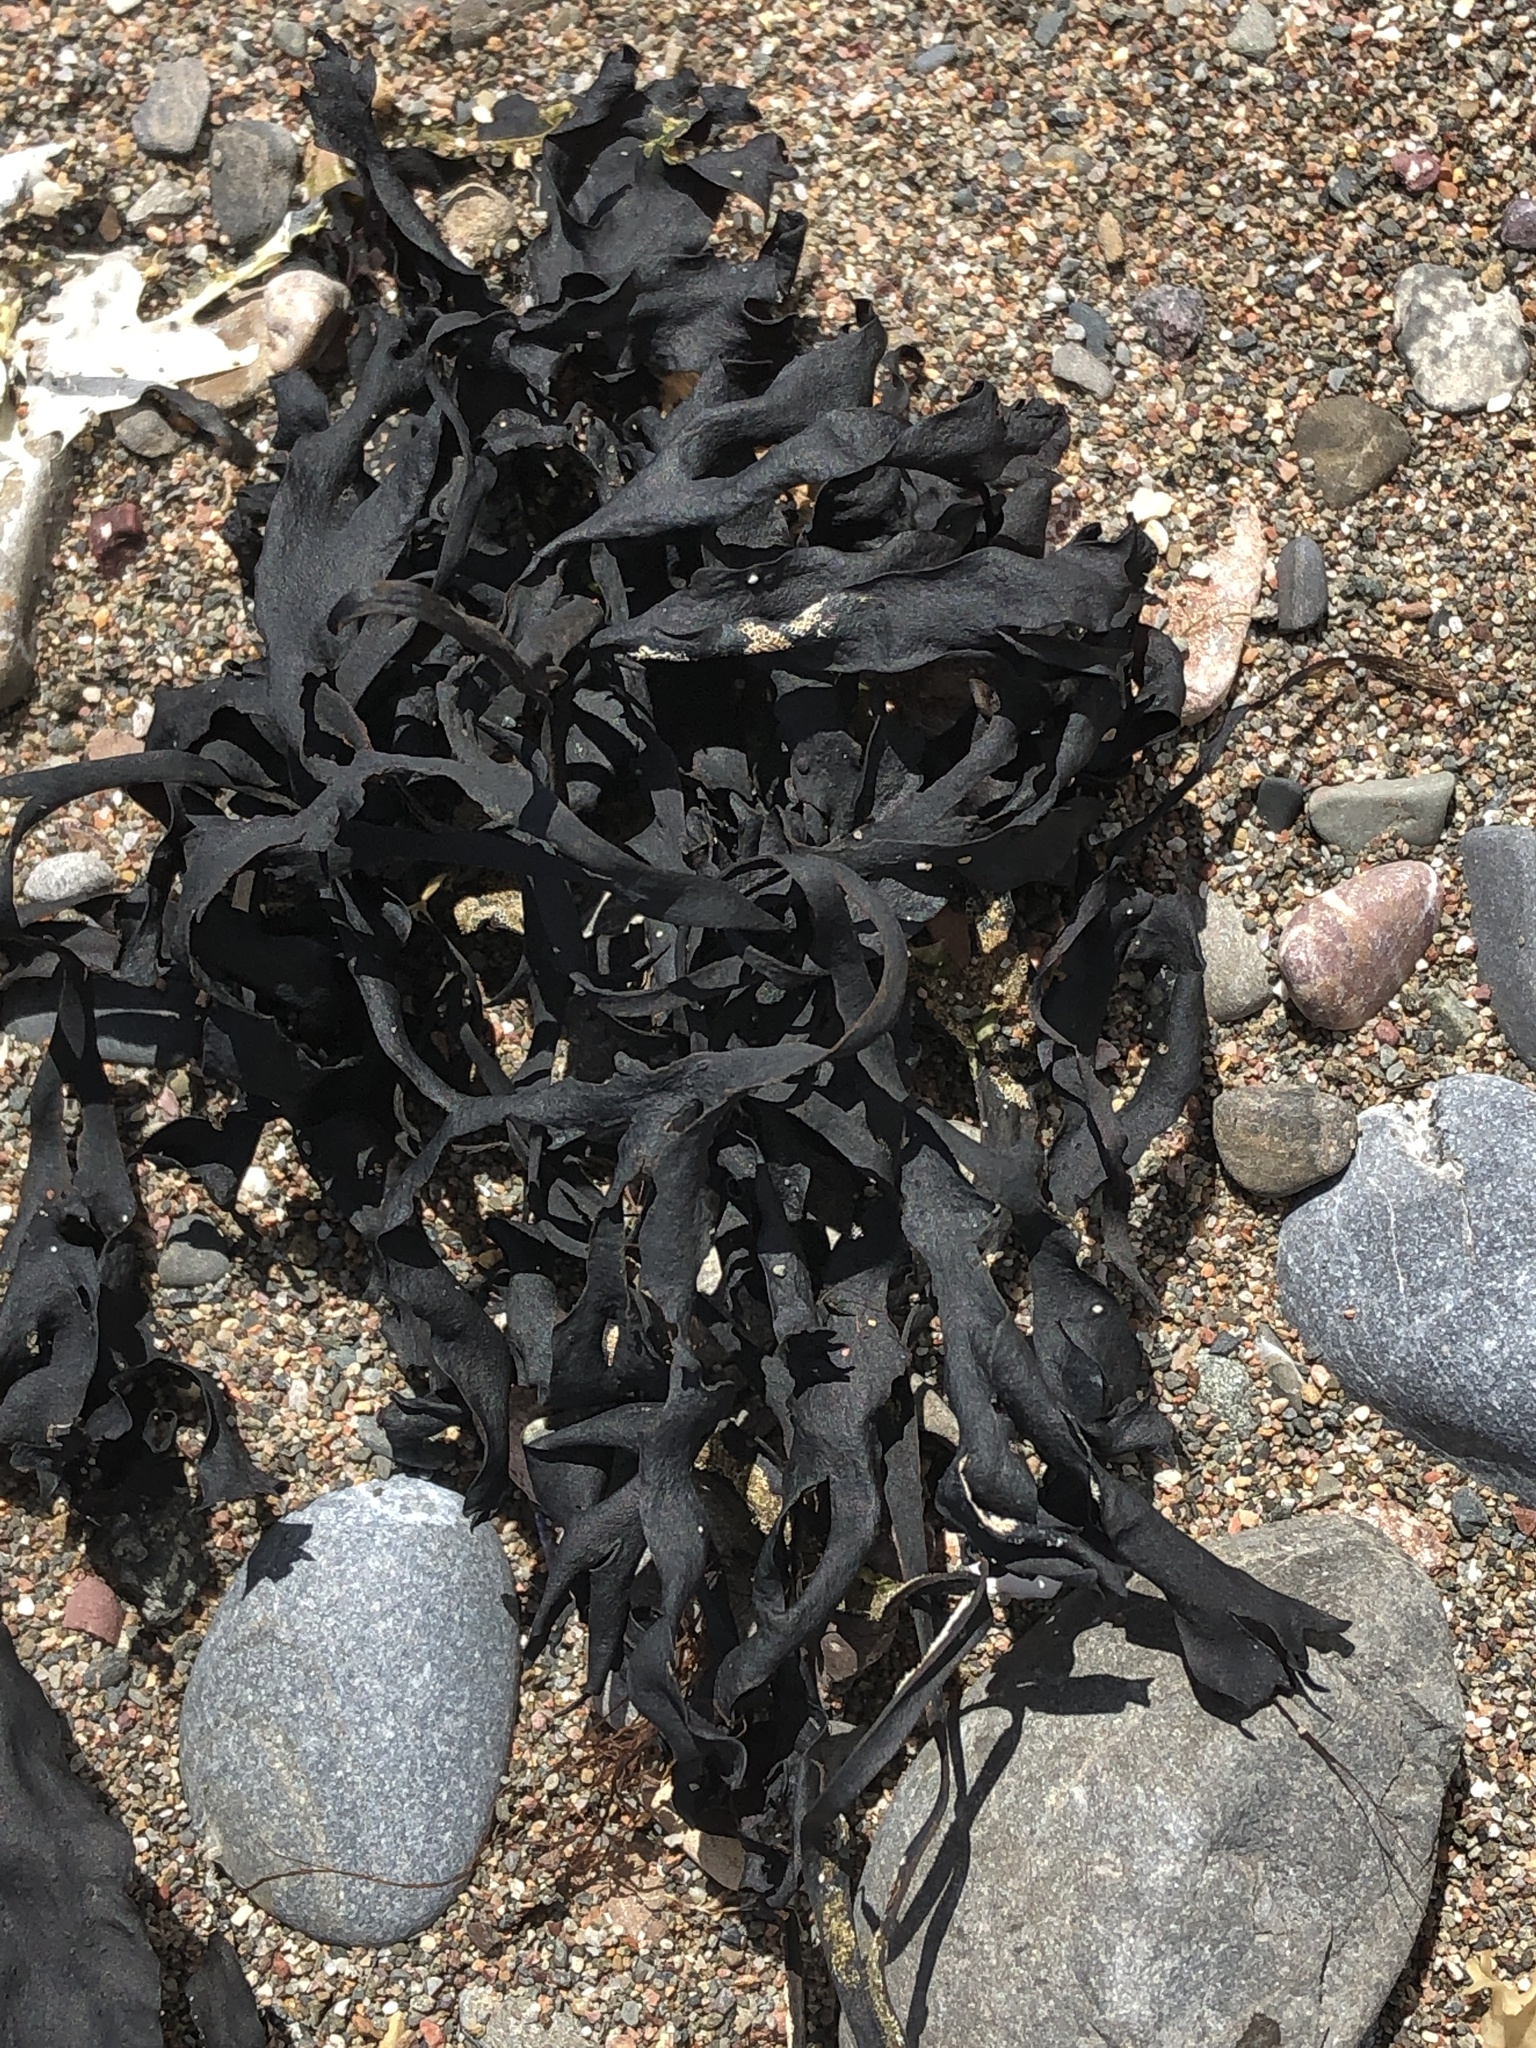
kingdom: Chromista
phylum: Ochrophyta
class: Phaeophyceae
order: Fucales
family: Fucaceae
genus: Fucus
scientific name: Fucus
